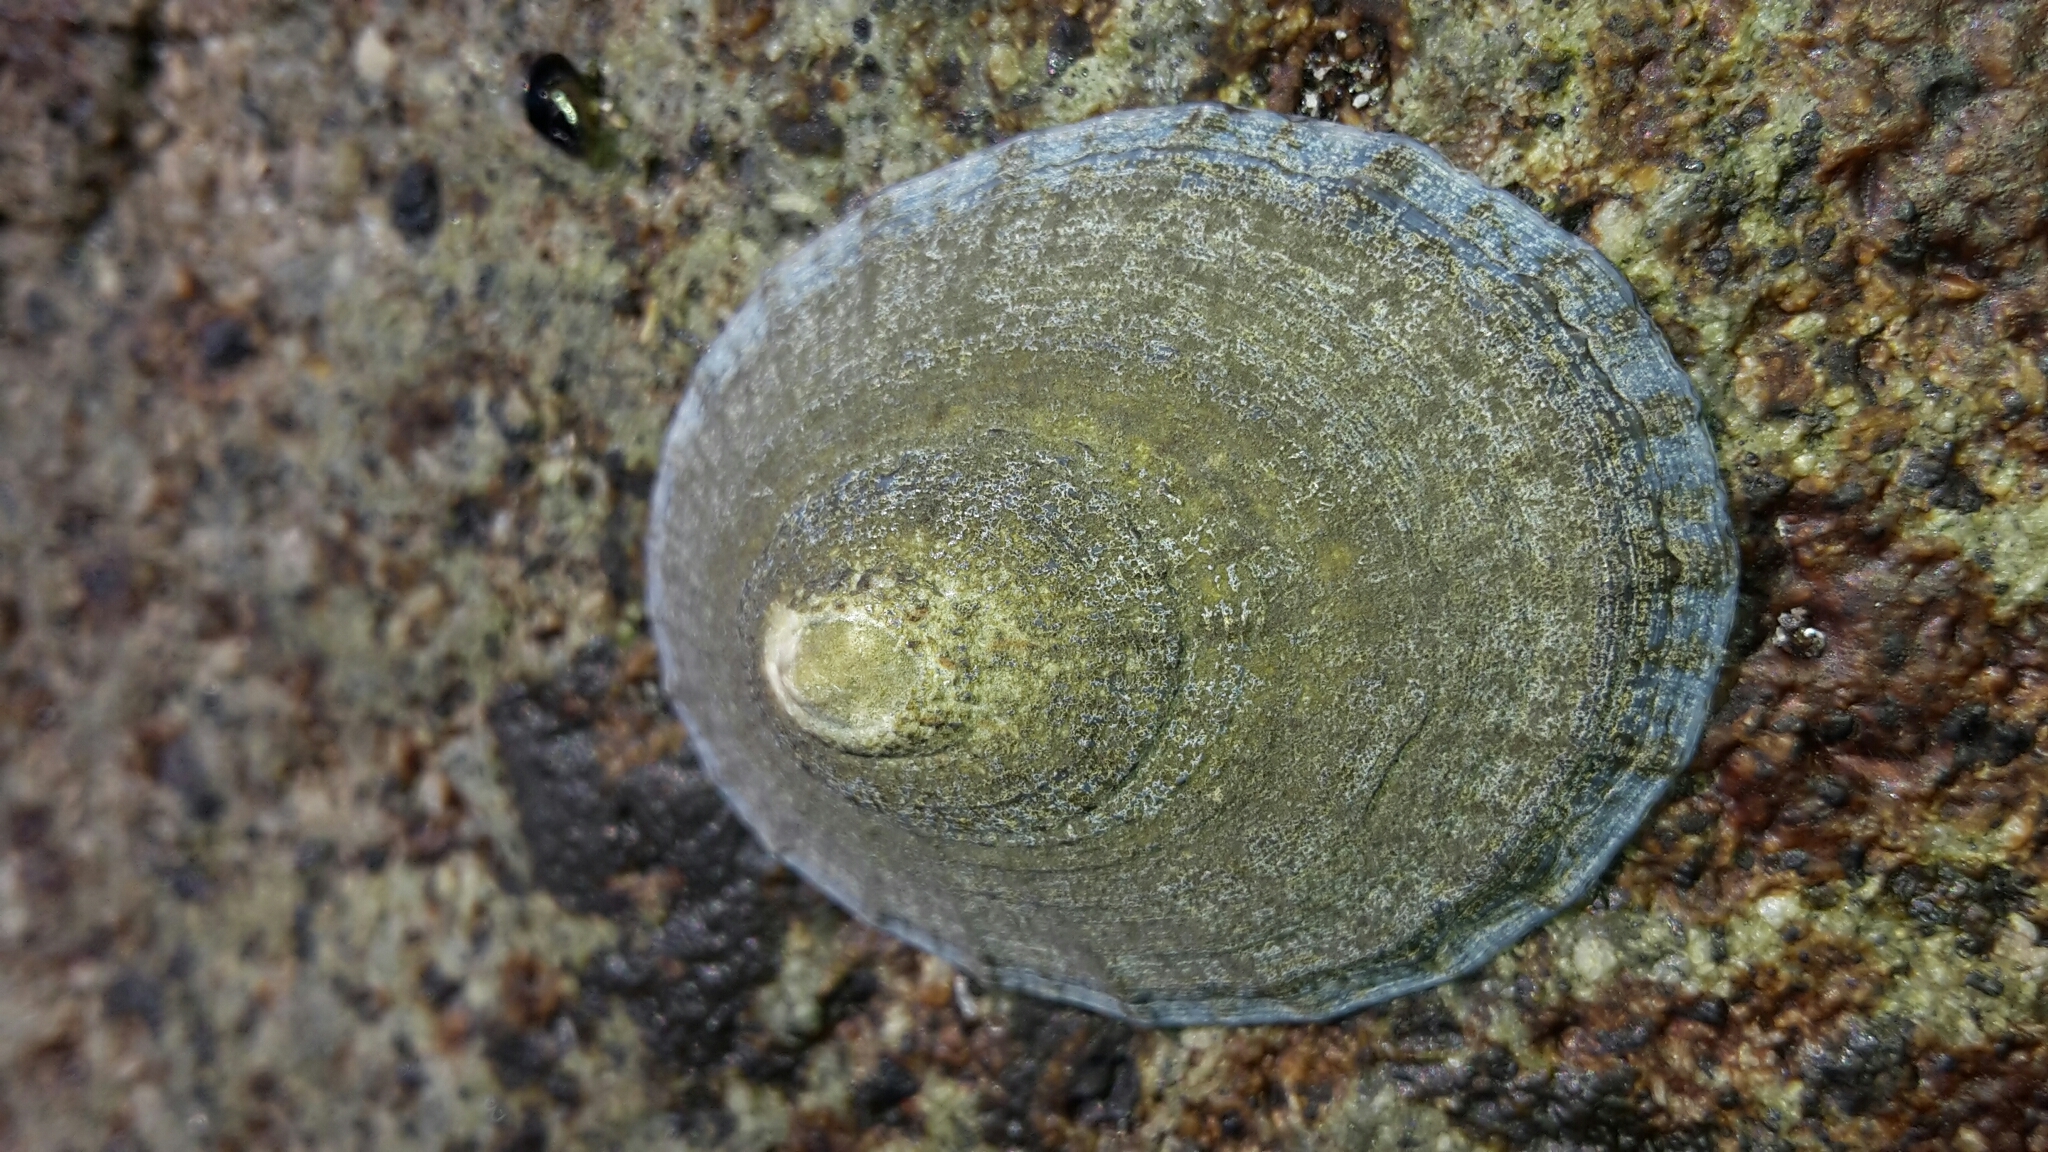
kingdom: Animalia
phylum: Mollusca
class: Gastropoda
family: Nacellidae
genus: Cellana
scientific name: Cellana radians
